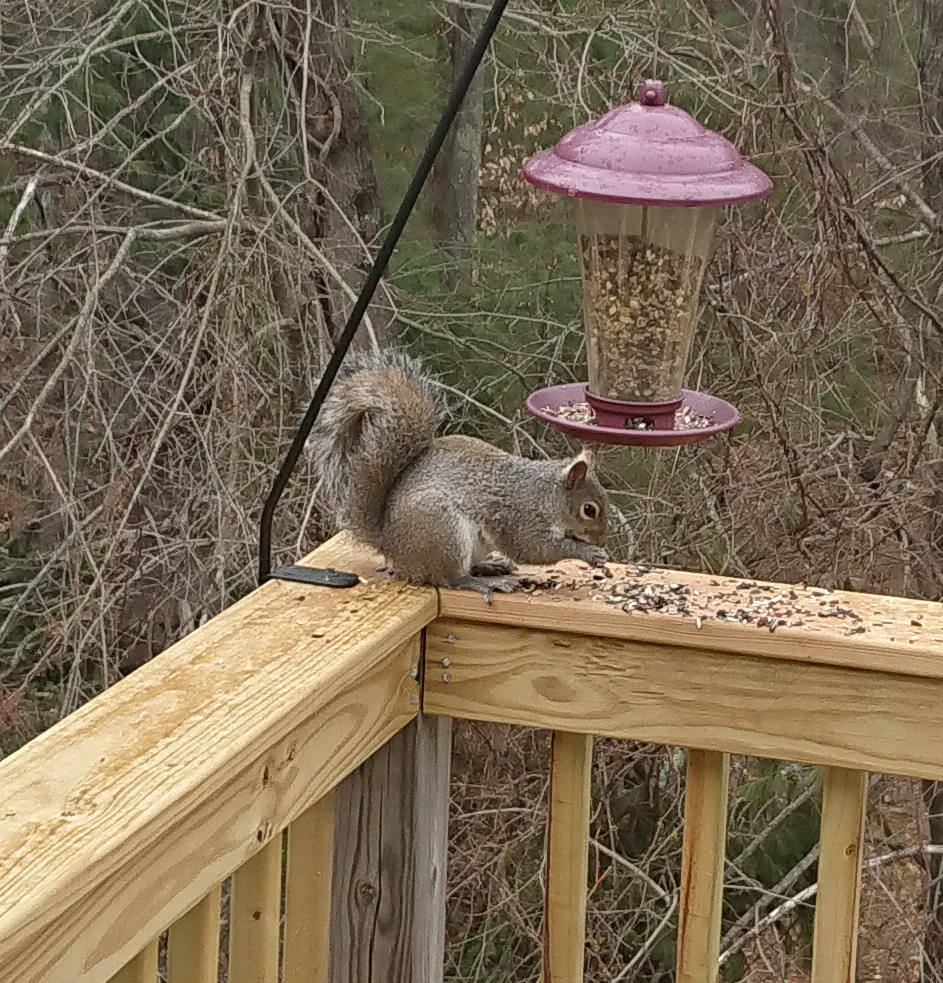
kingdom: Animalia
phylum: Chordata
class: Mammalia
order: Rodentia
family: Sciuridae
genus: Sciurus
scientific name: Sciurus carolinensis
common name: Eastern gray squirrel
